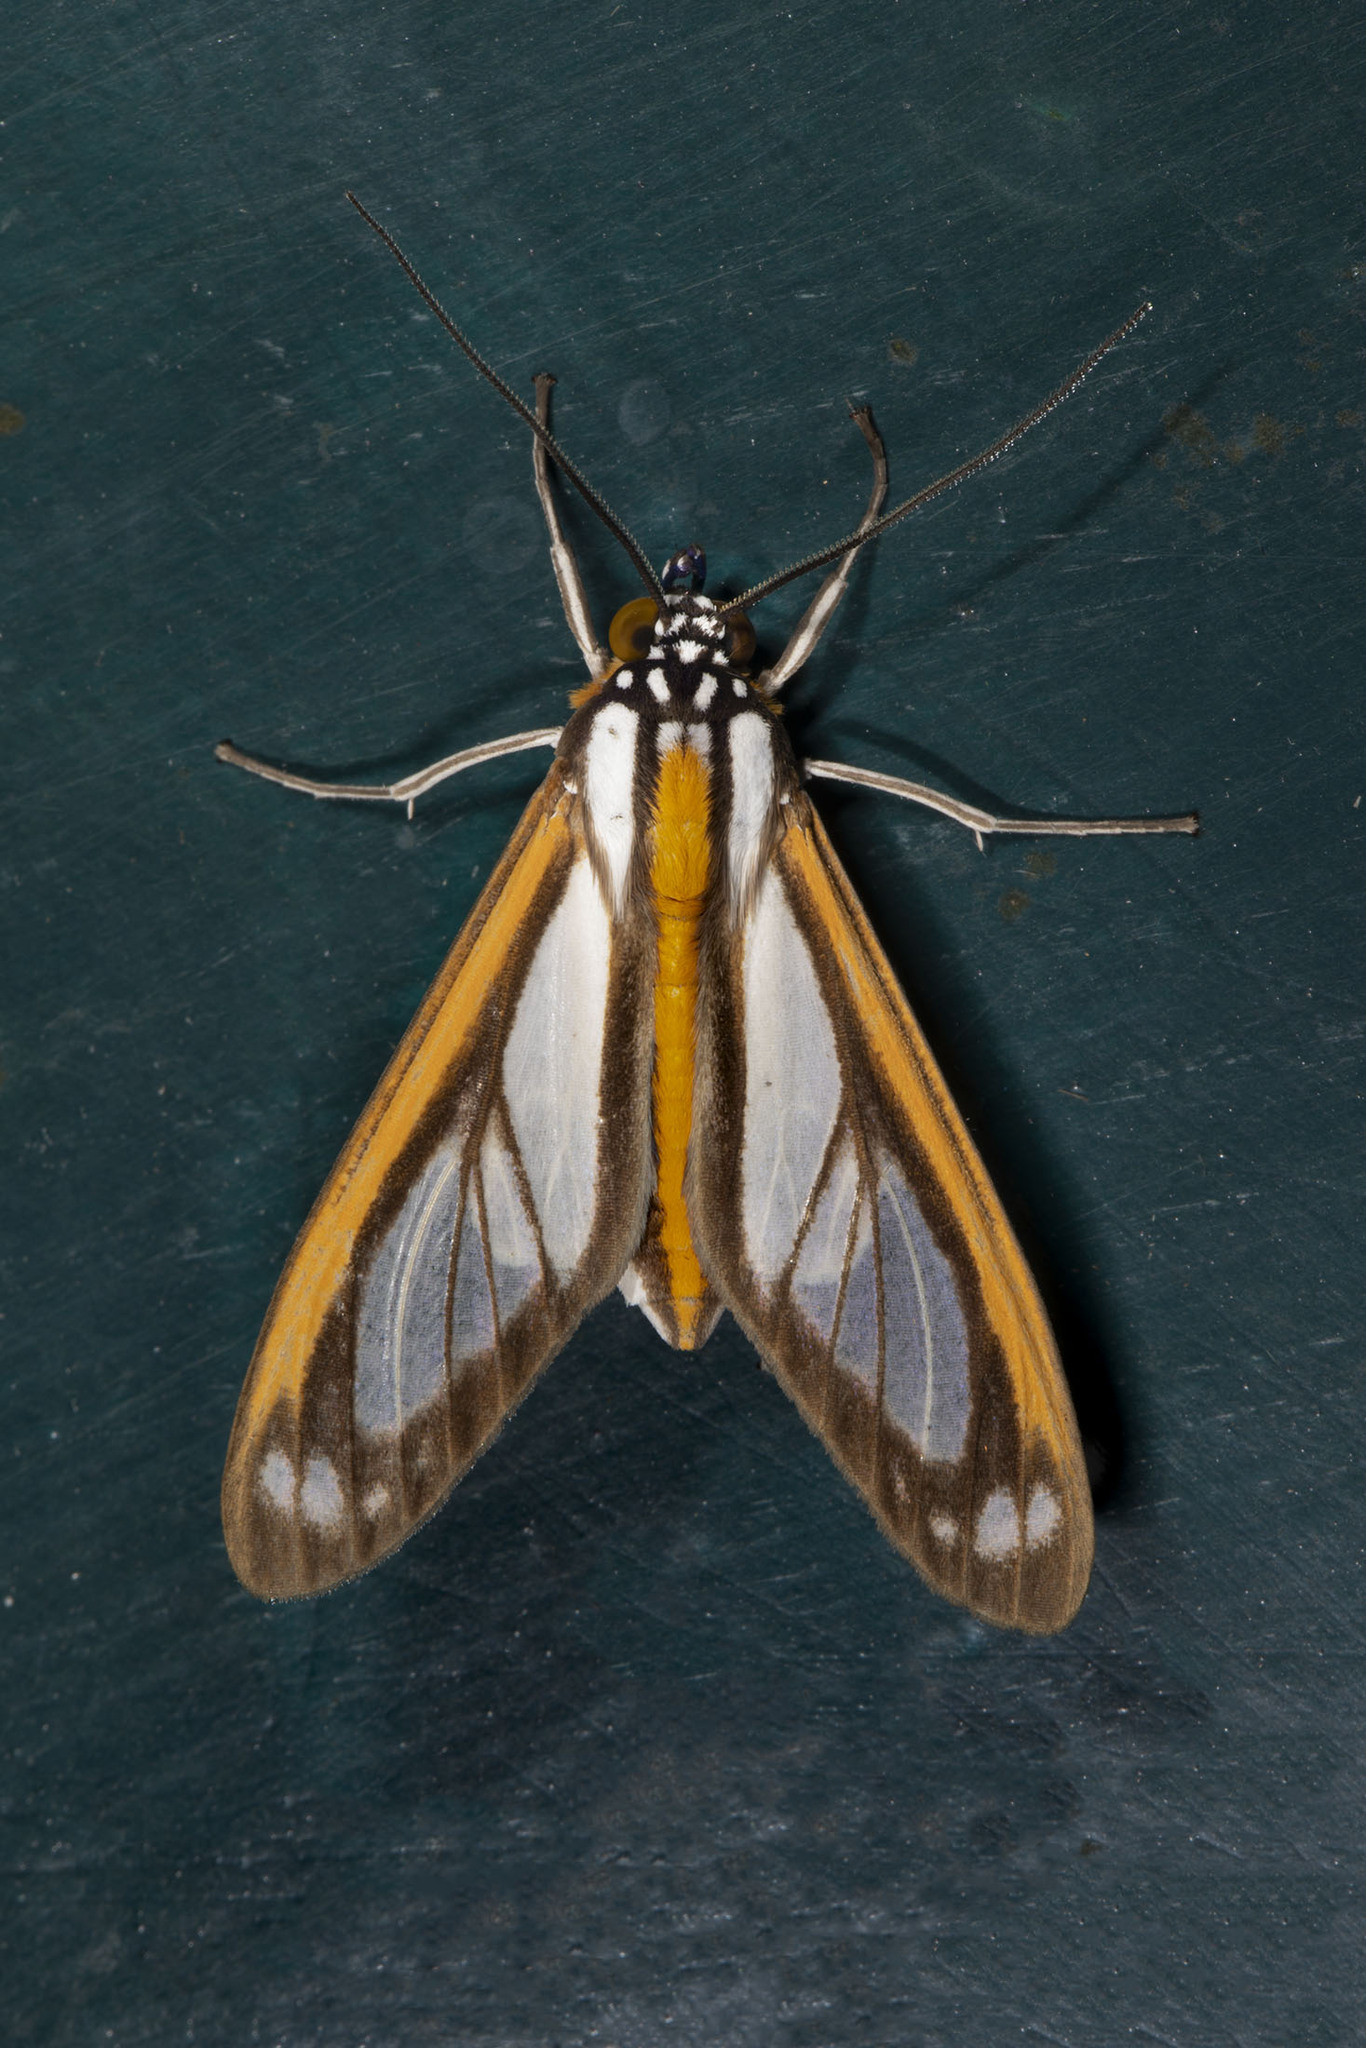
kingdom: Animalia
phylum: Arthropoda
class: Insecta
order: Lepidoptera
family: Erebidae
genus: Robinsonia
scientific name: Robinsonia rockstonia
